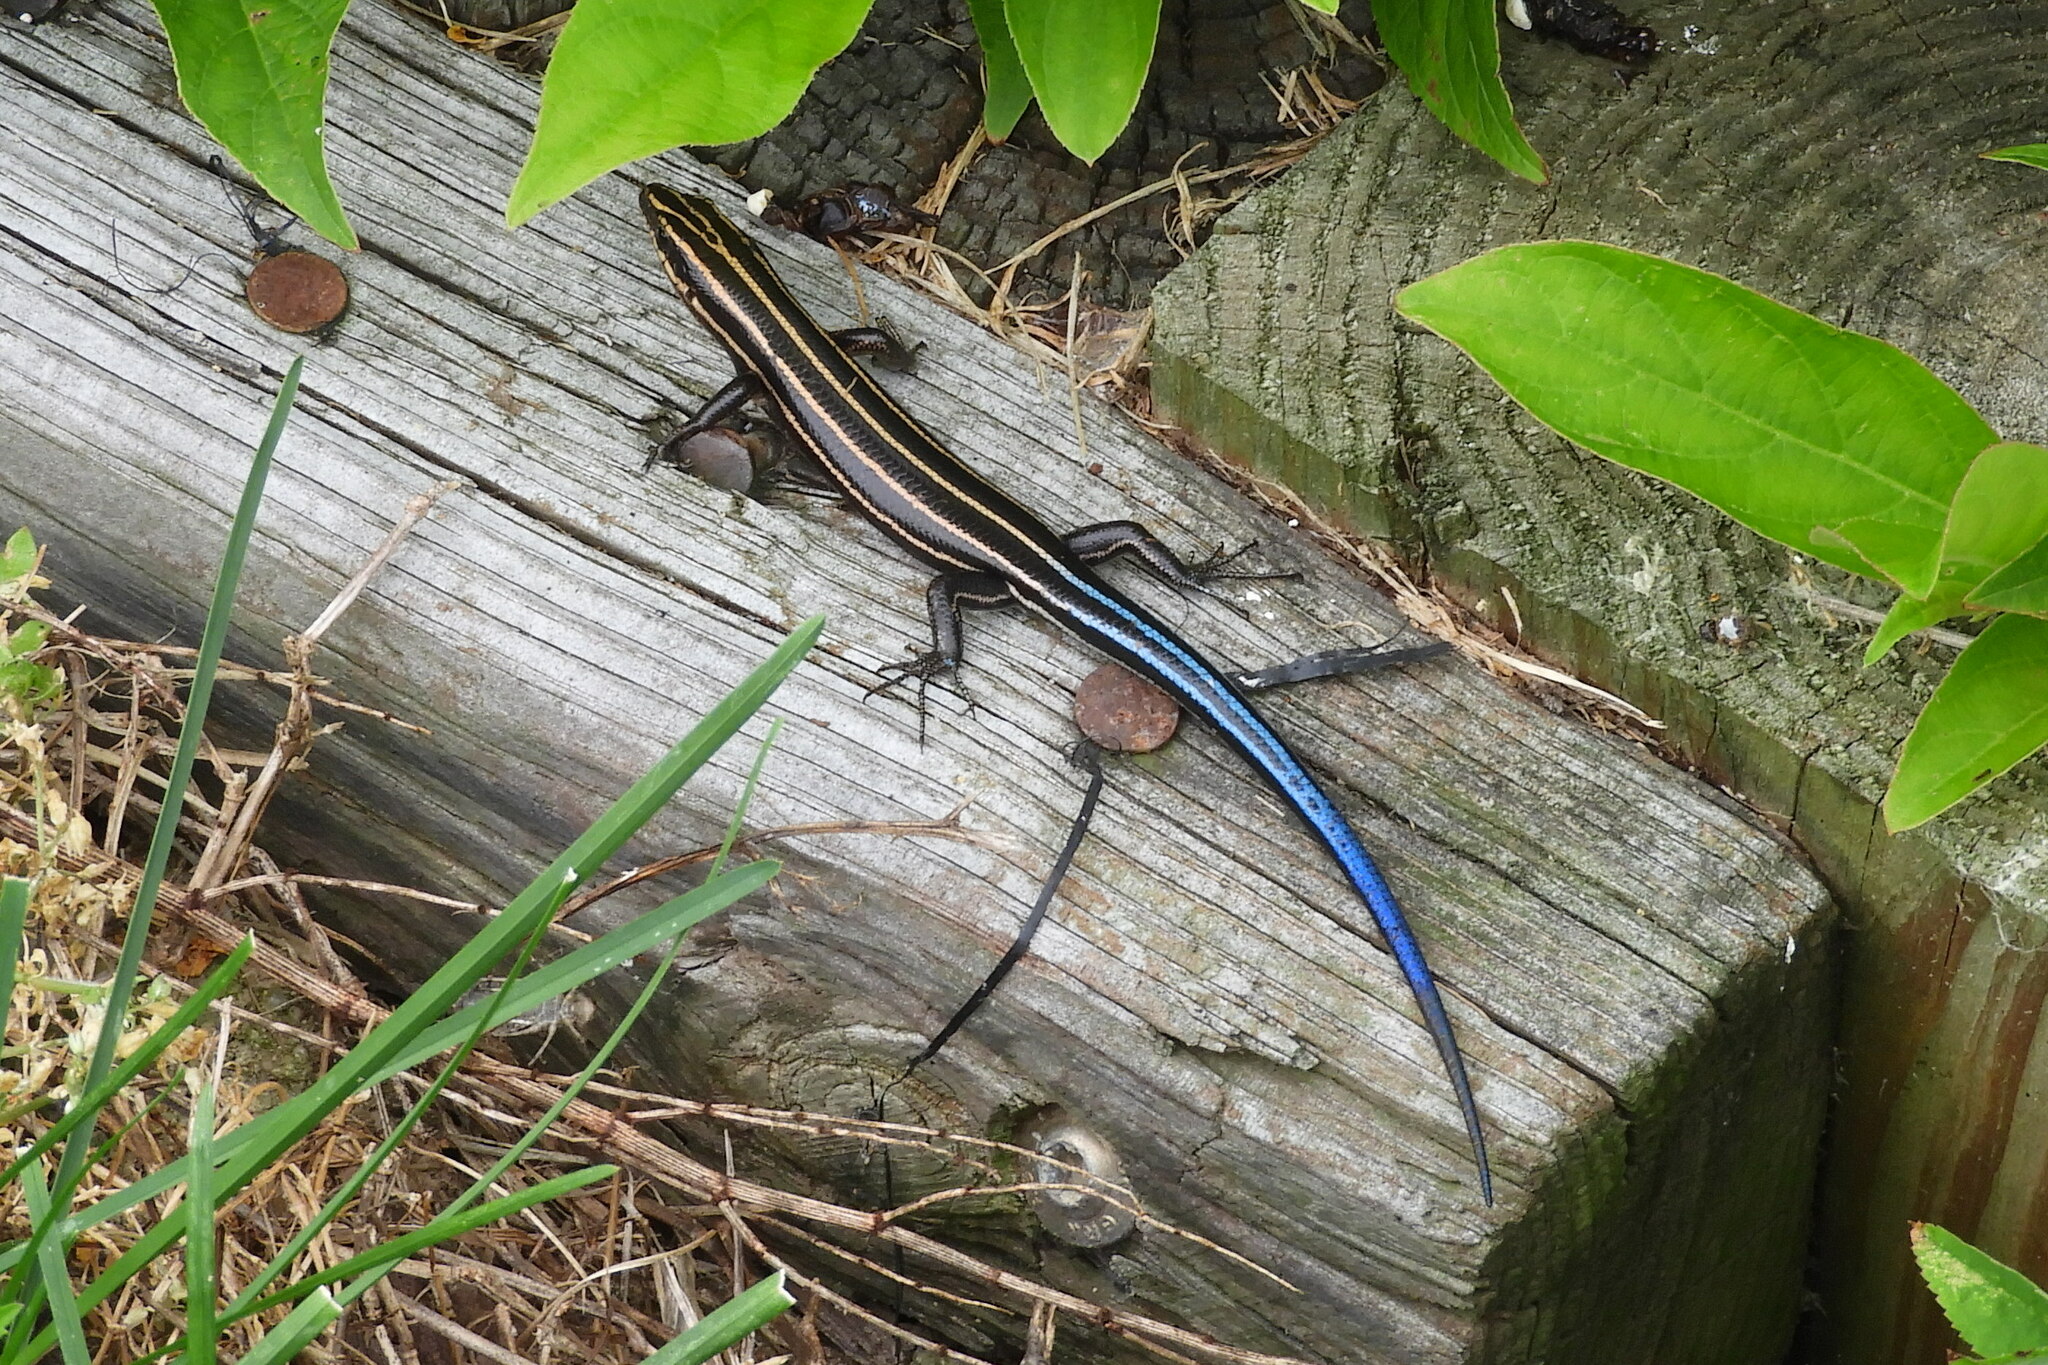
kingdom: Animalia
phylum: Chordata
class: Squamata
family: Scincidae
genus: Plestiodon
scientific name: Plestiodon fasciatus
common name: Five-lined skink
